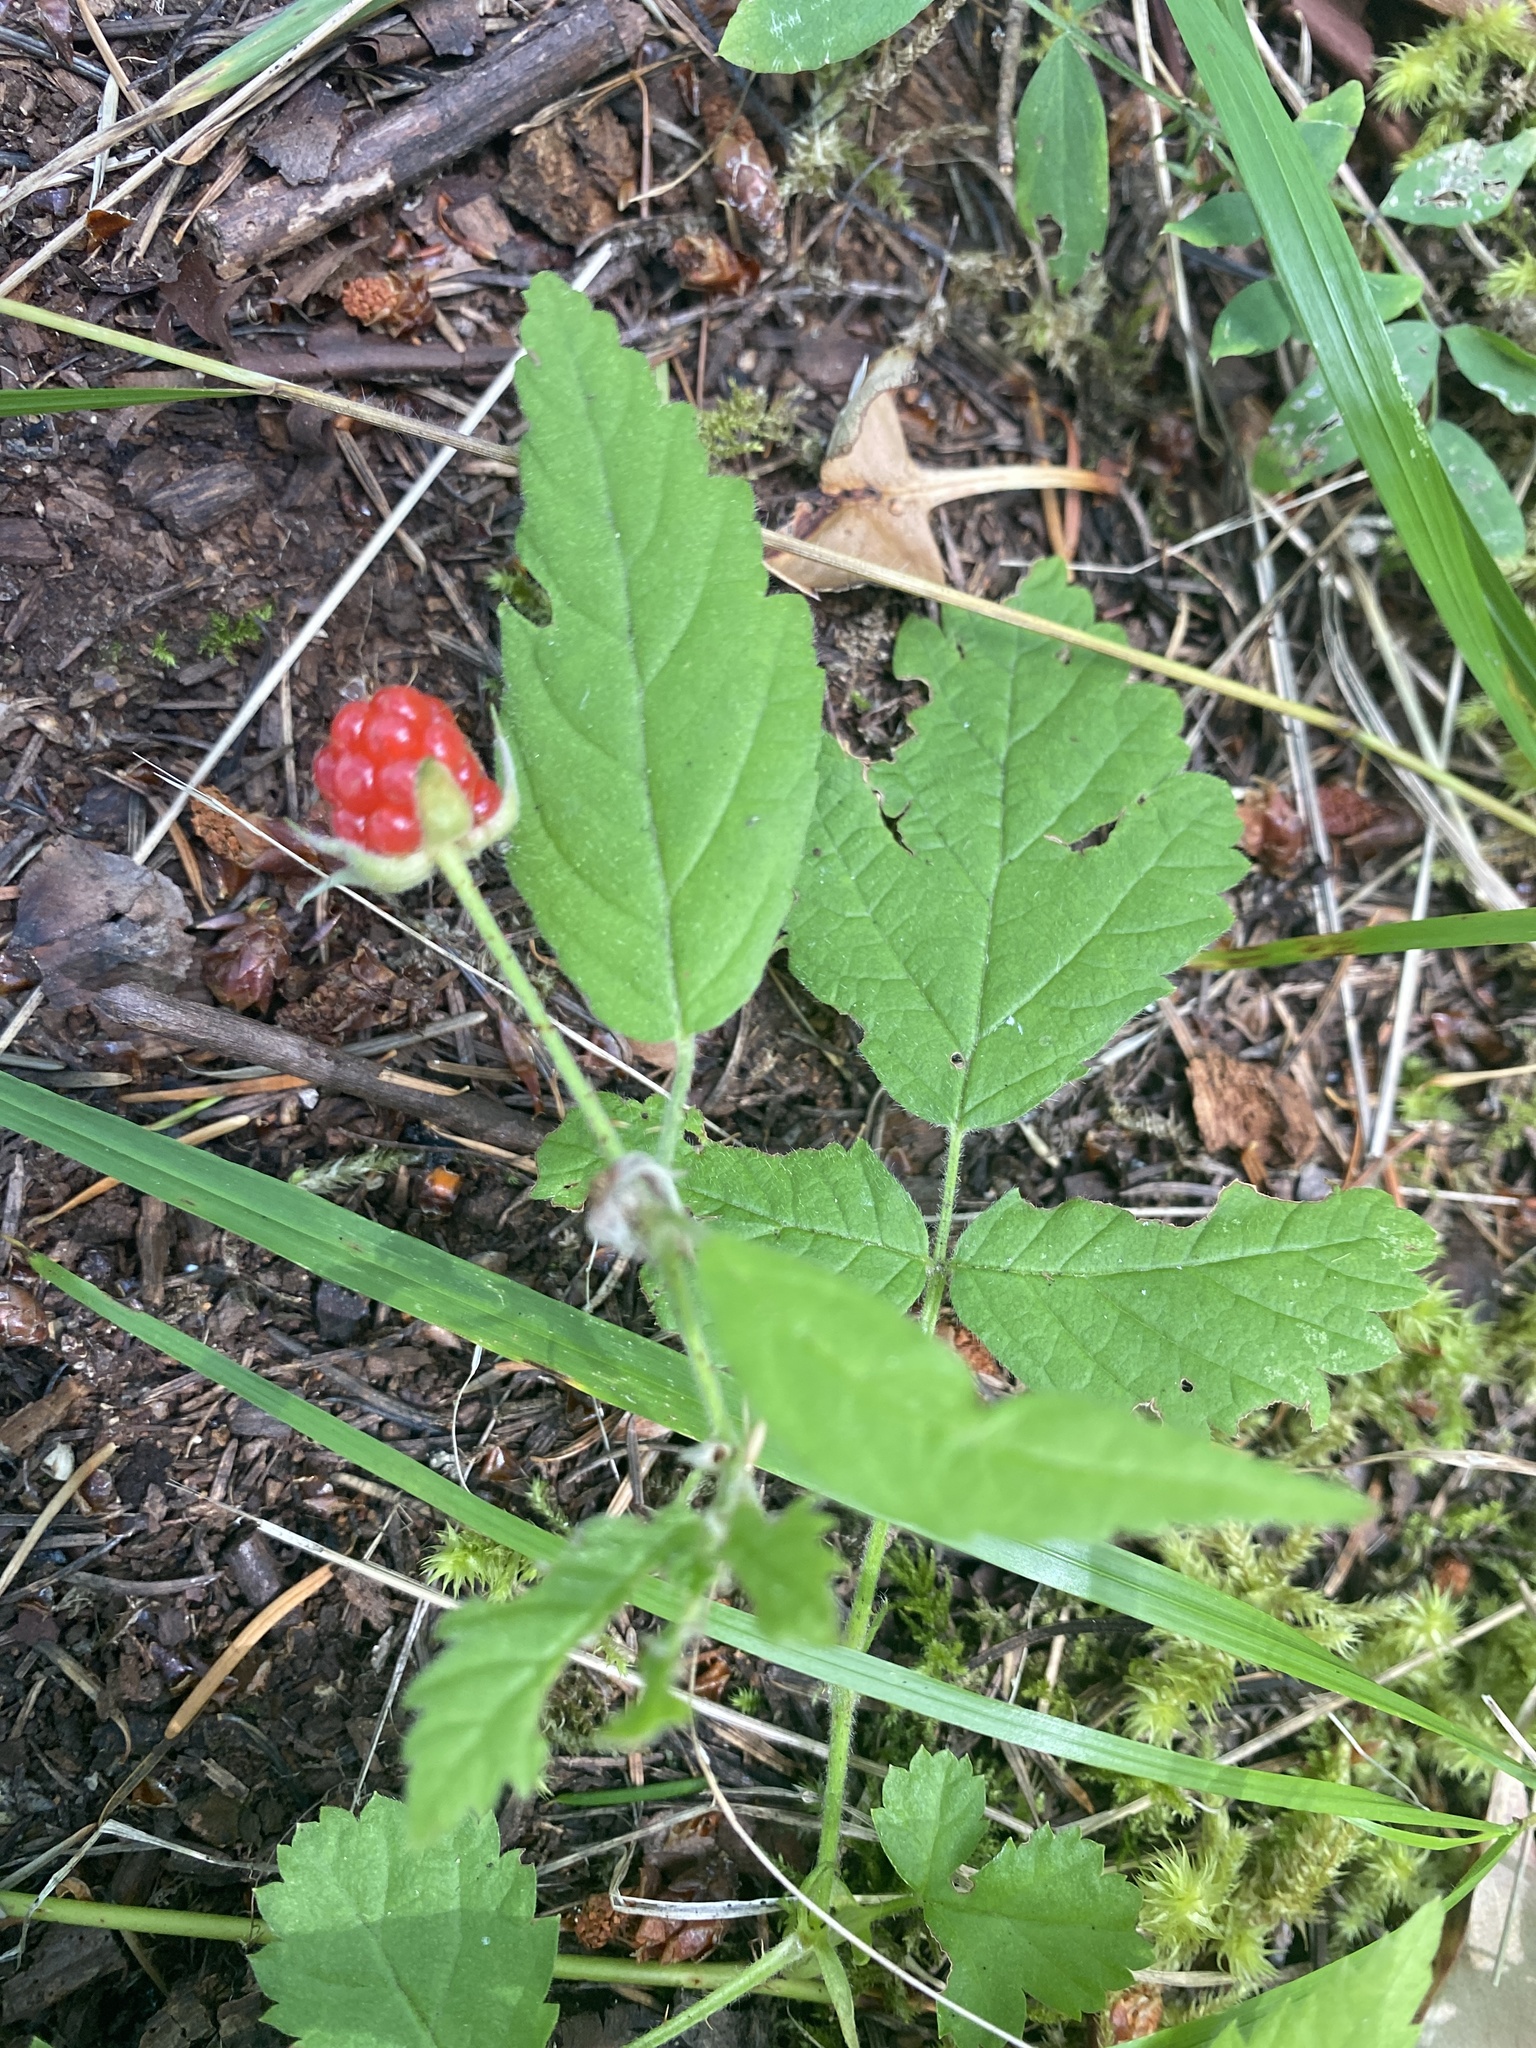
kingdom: Plantae
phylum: Tracheophyta
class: Magnoliopsida
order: Rosales
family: Rosaceae
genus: Rubus
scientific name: Rubus ursinus
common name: Pacific blackberry
